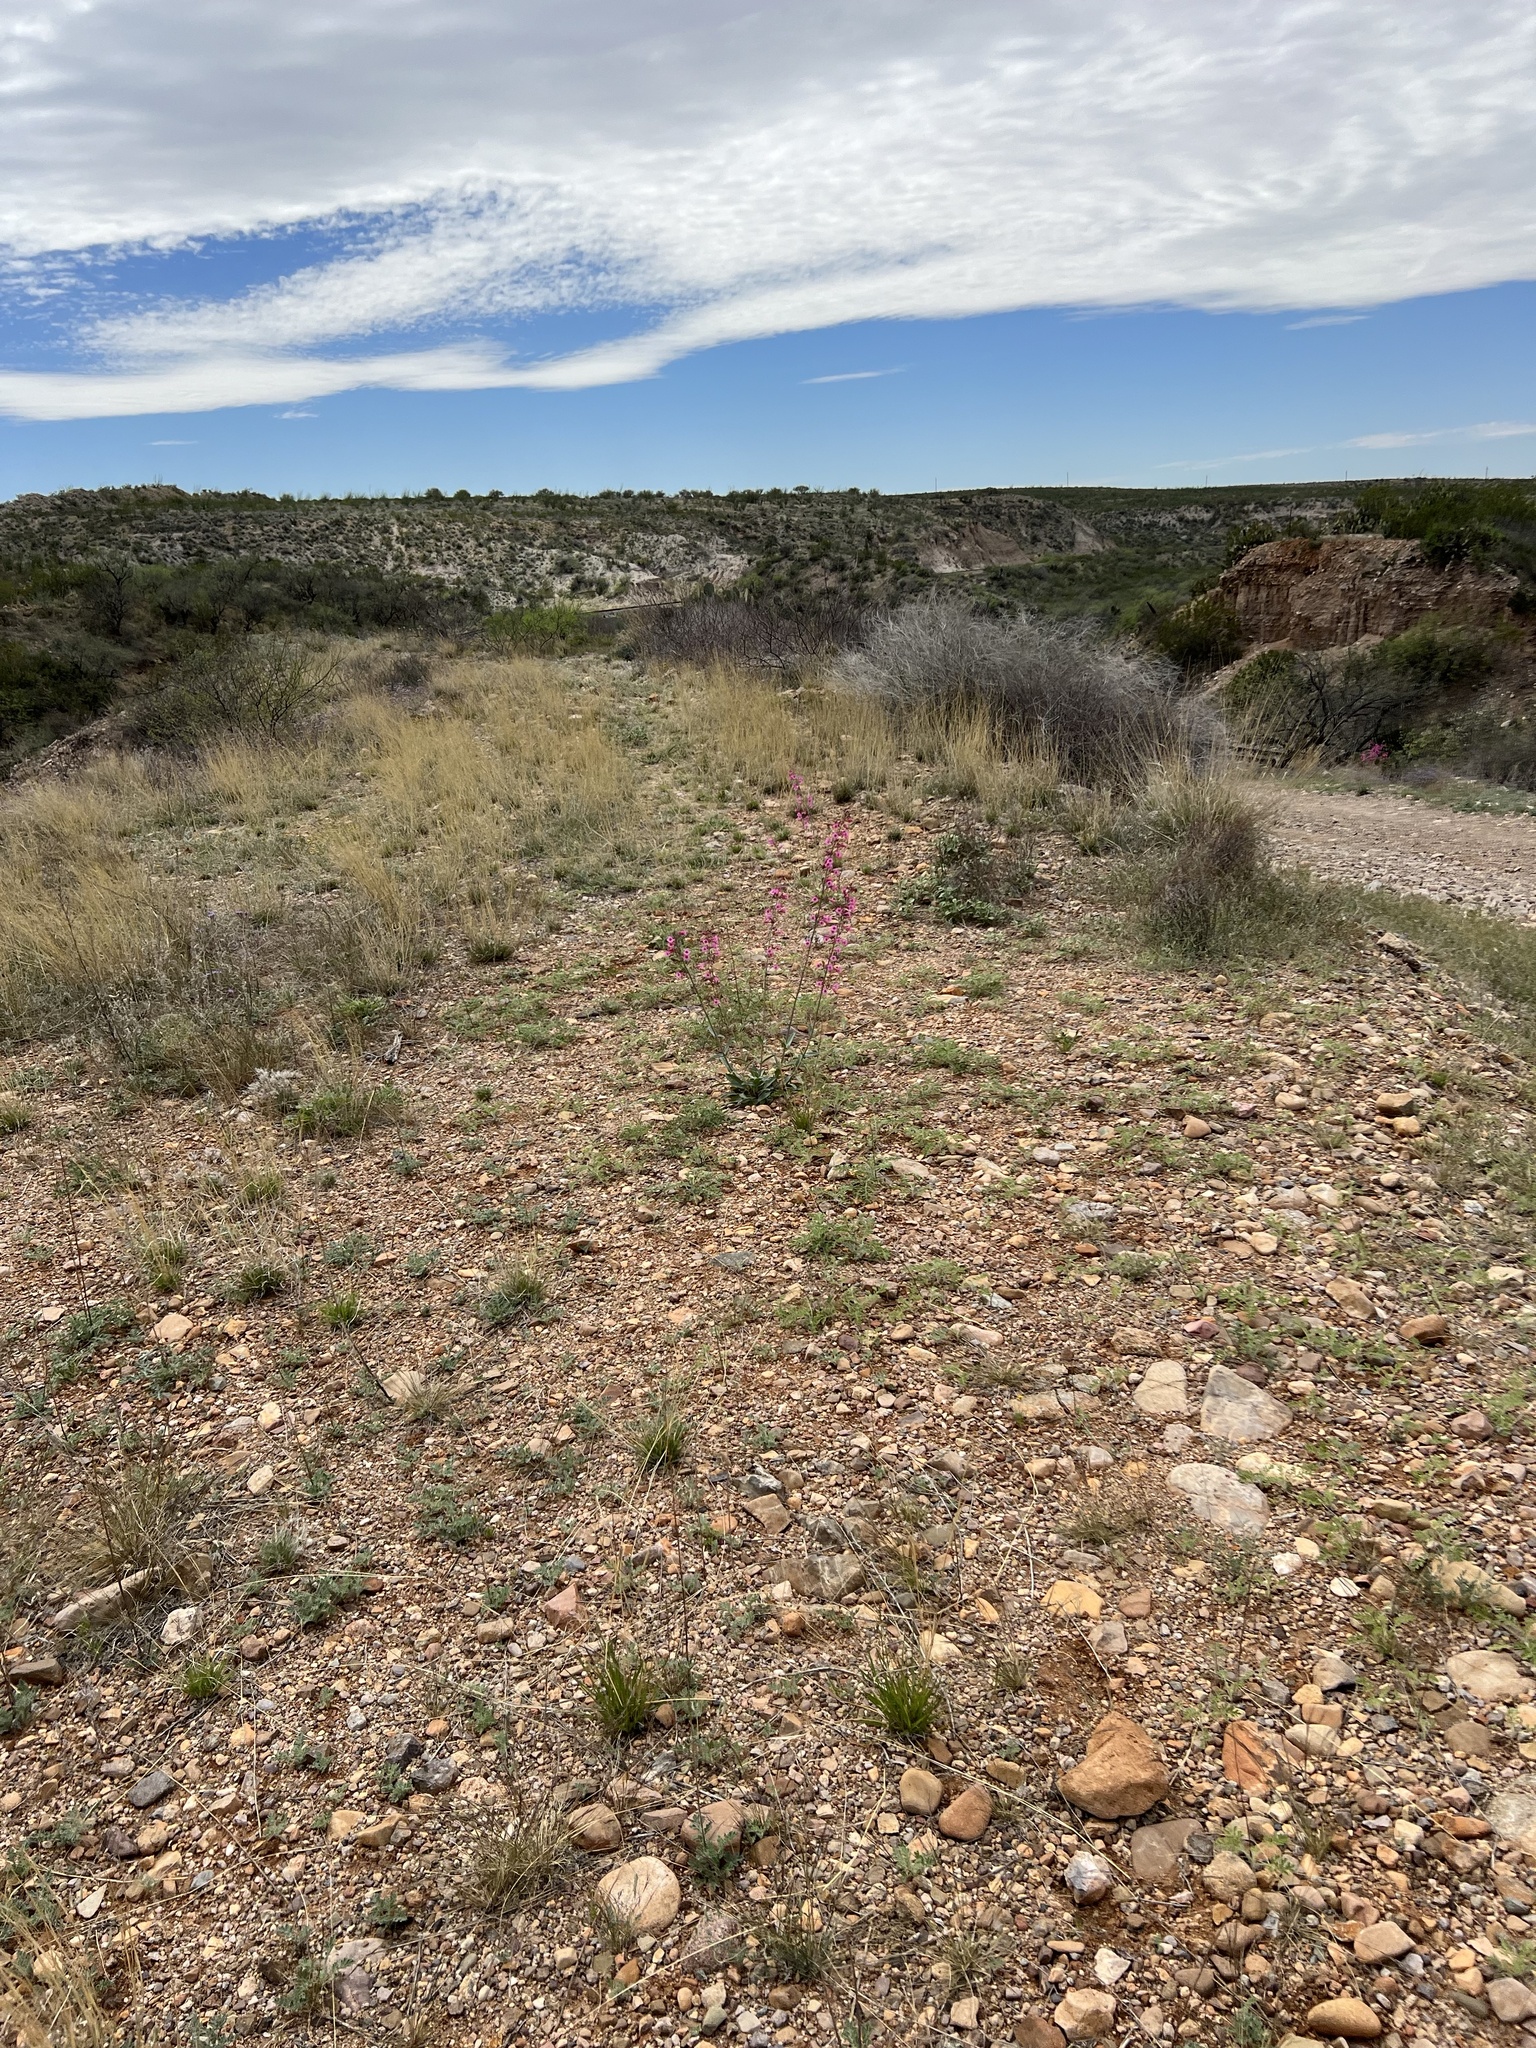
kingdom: Plantae
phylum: Tracheophyta
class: Magnoliopsida
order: Lamiales
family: Plantaginaceae
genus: Penstemon
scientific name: Penstemon parryi
